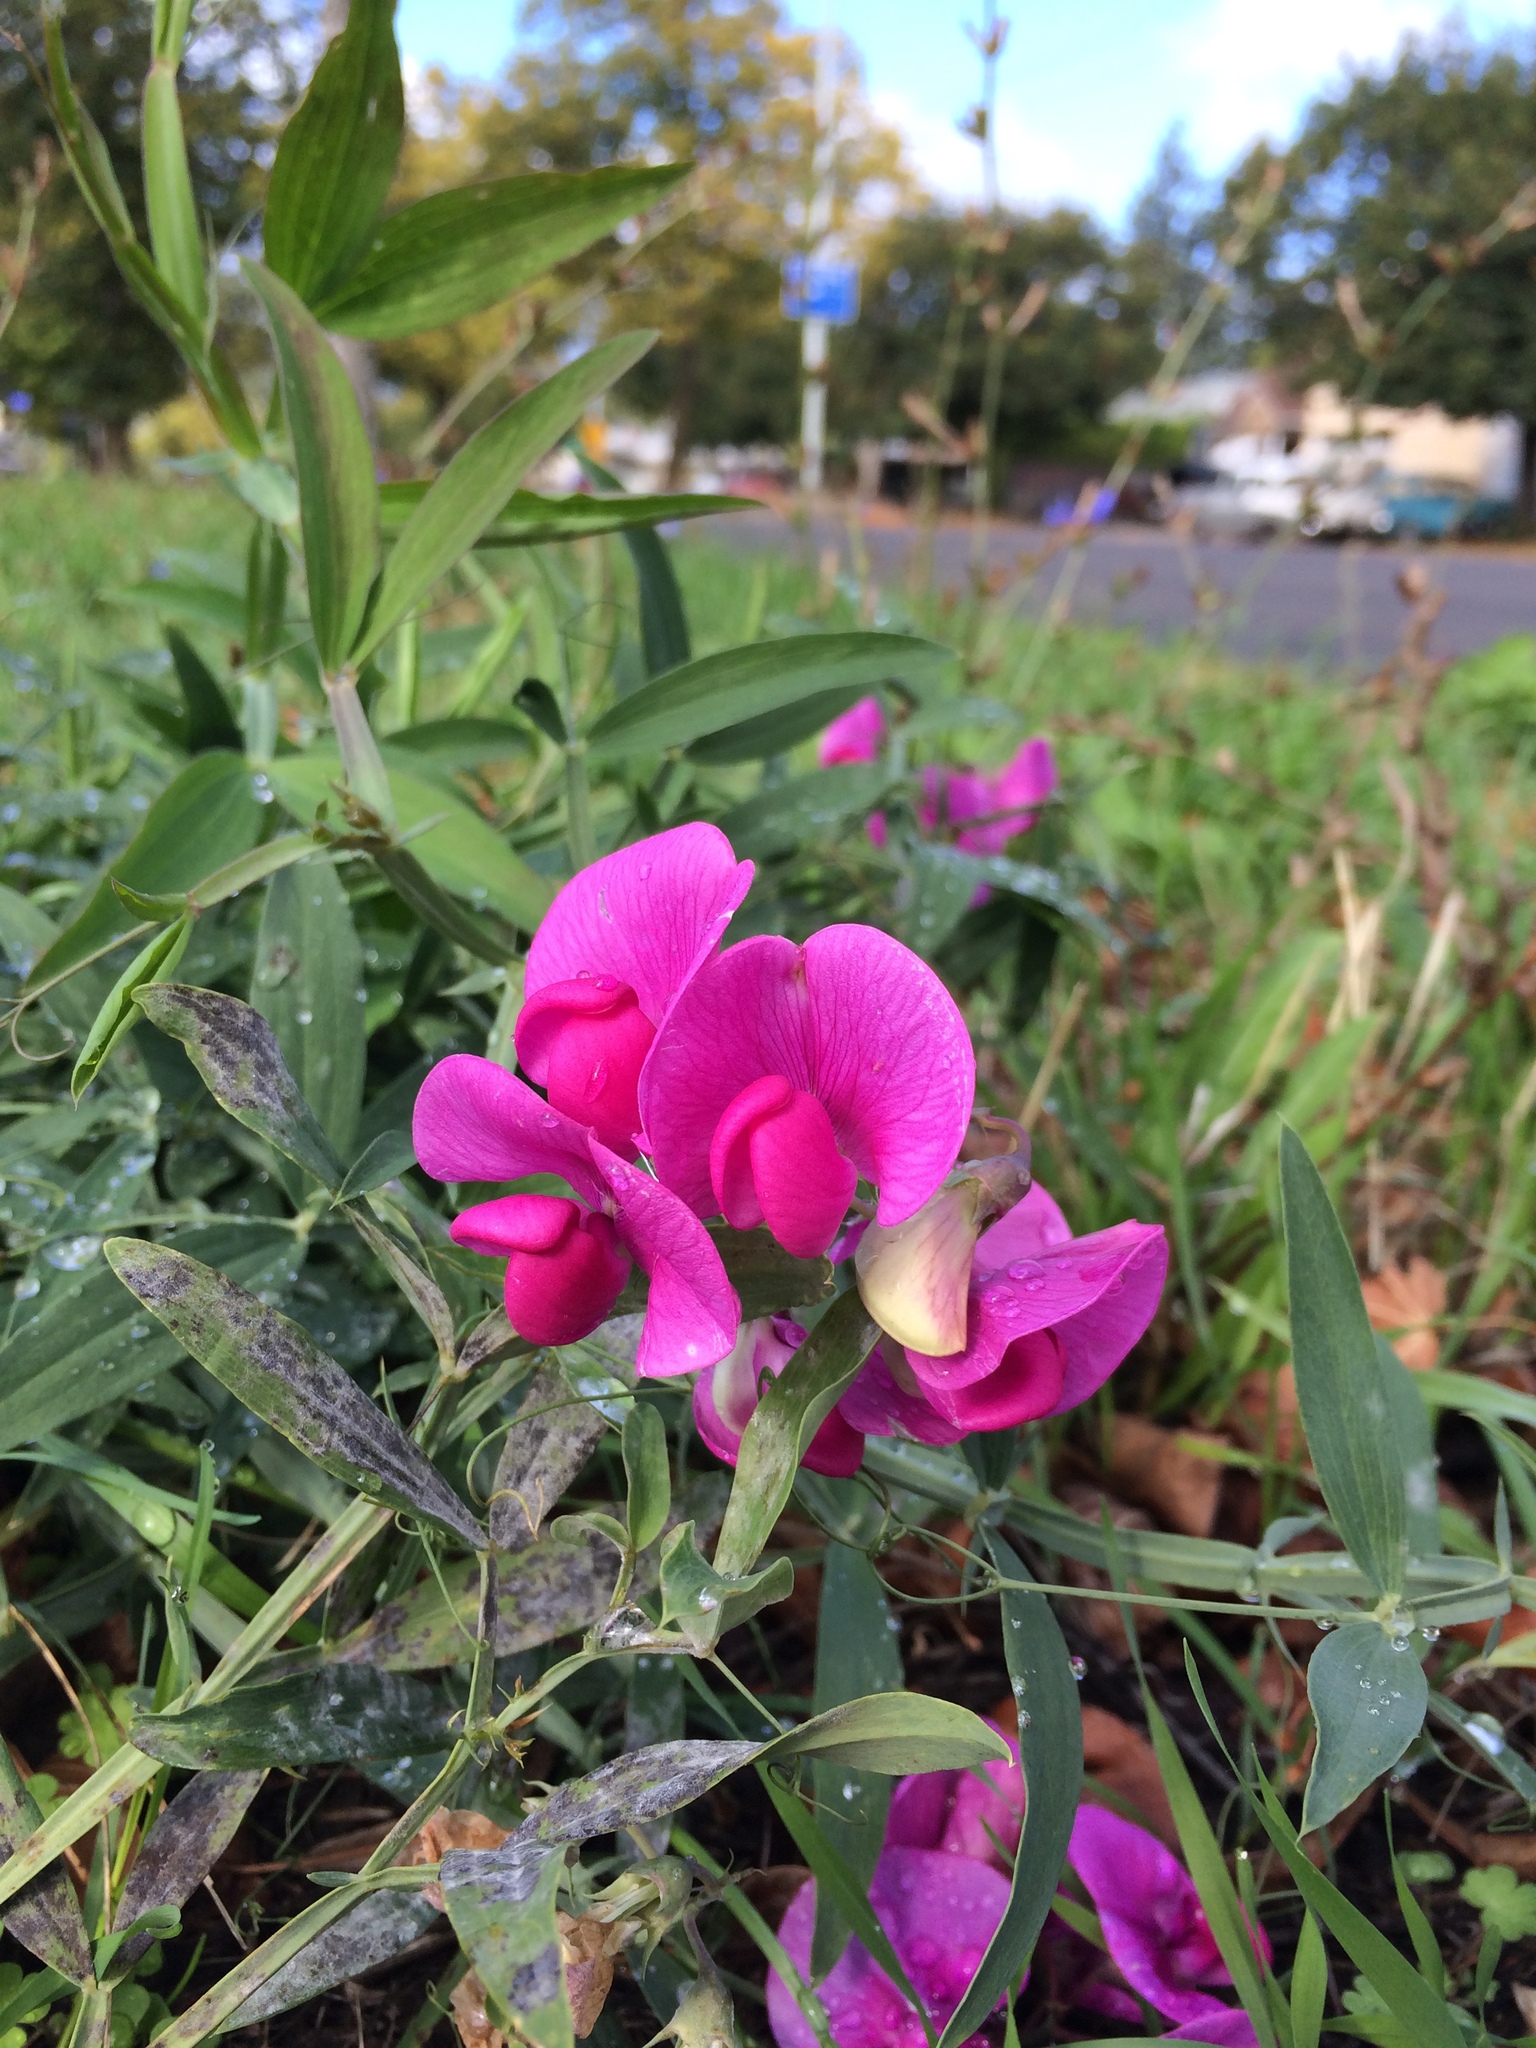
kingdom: Plantae
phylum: Tracheophyta
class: Magnoliopsida
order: Fabales
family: Fabaceae
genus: Lathyrus
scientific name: Lathyrus latifolius
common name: Perennial pea
